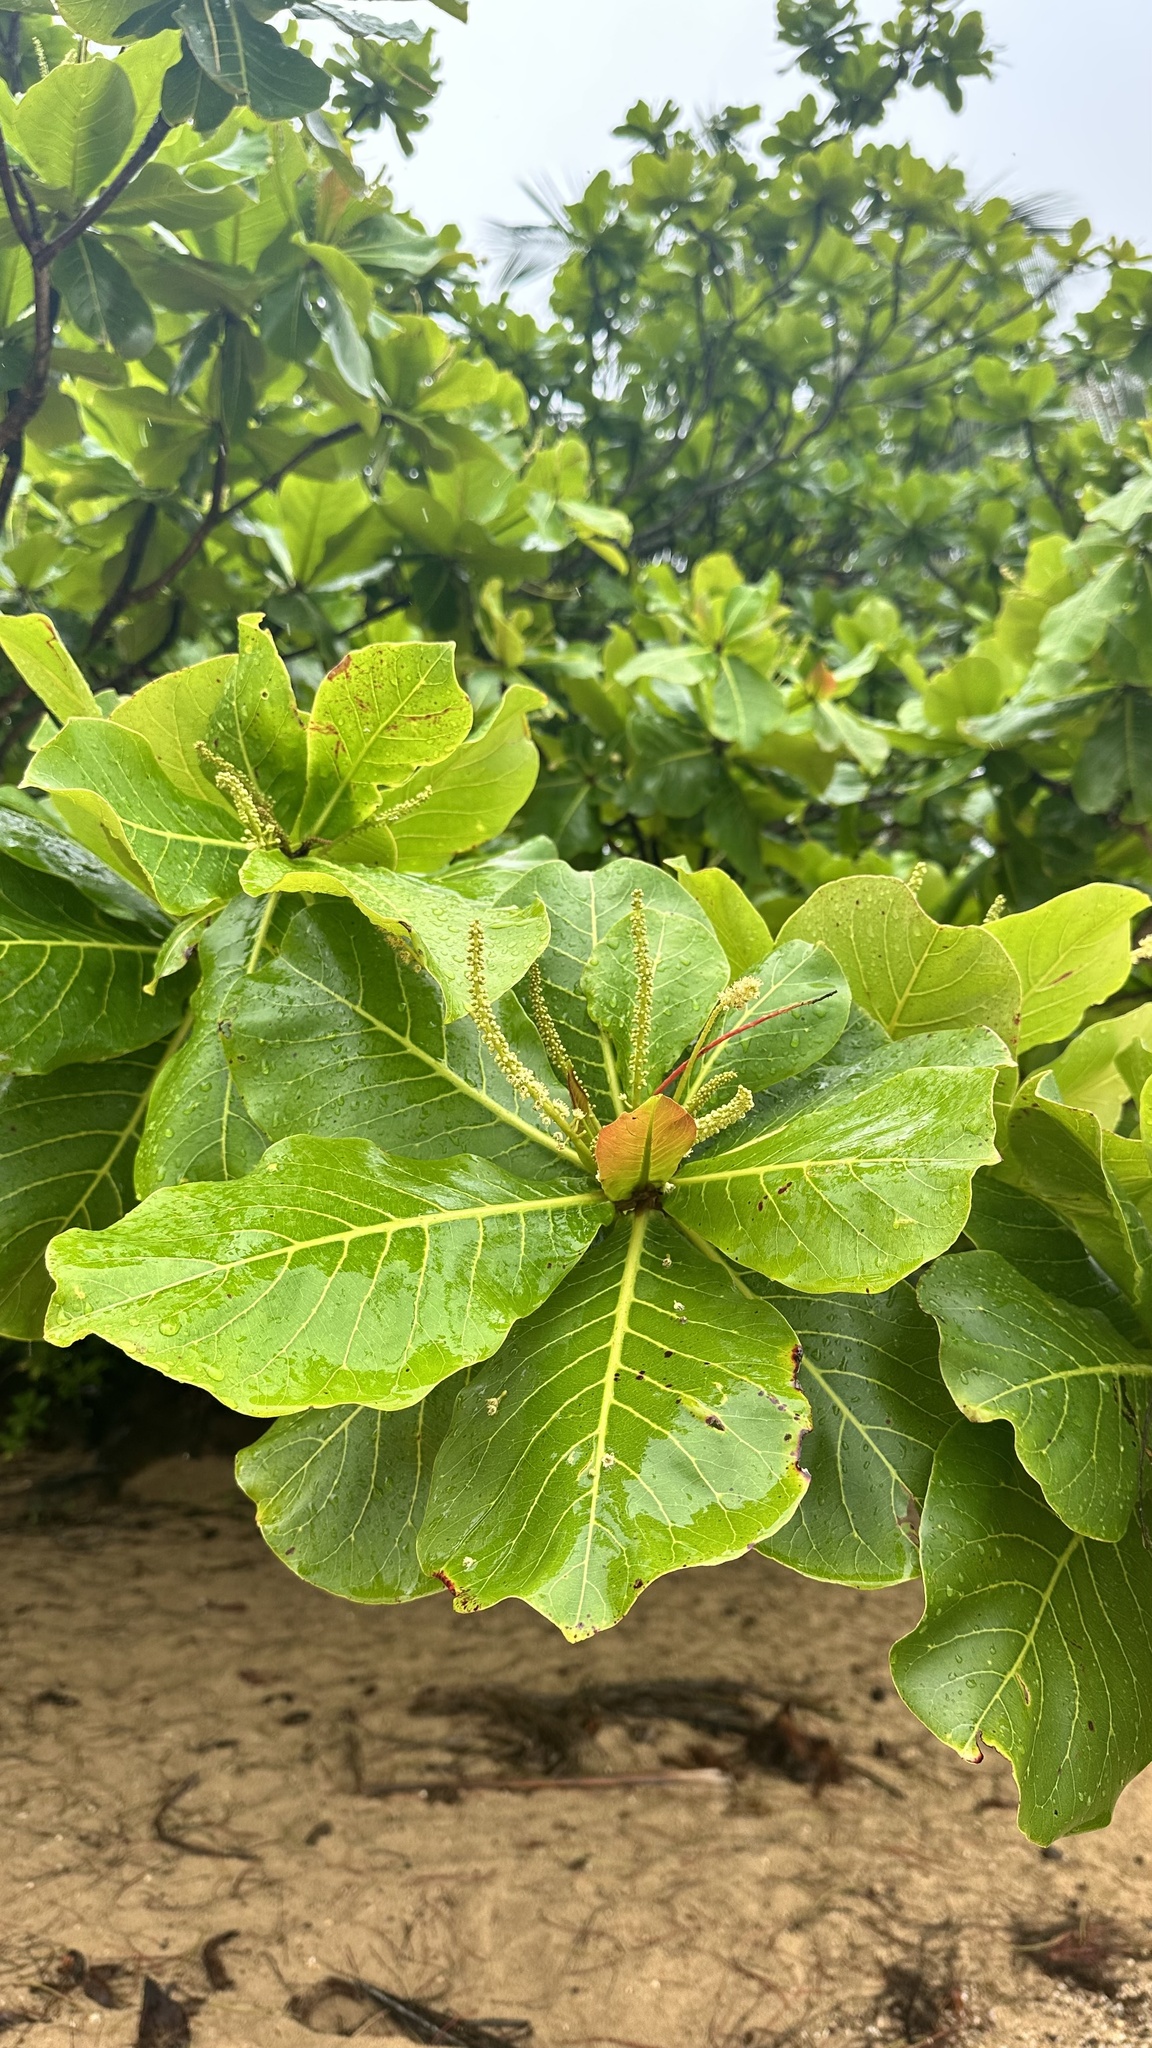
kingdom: Plantae
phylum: Tracheophyta
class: Magnoliopsida
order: Myrtales
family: Combretaceae
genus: Terminalia
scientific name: Terminalia catappa
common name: Tropical almond
